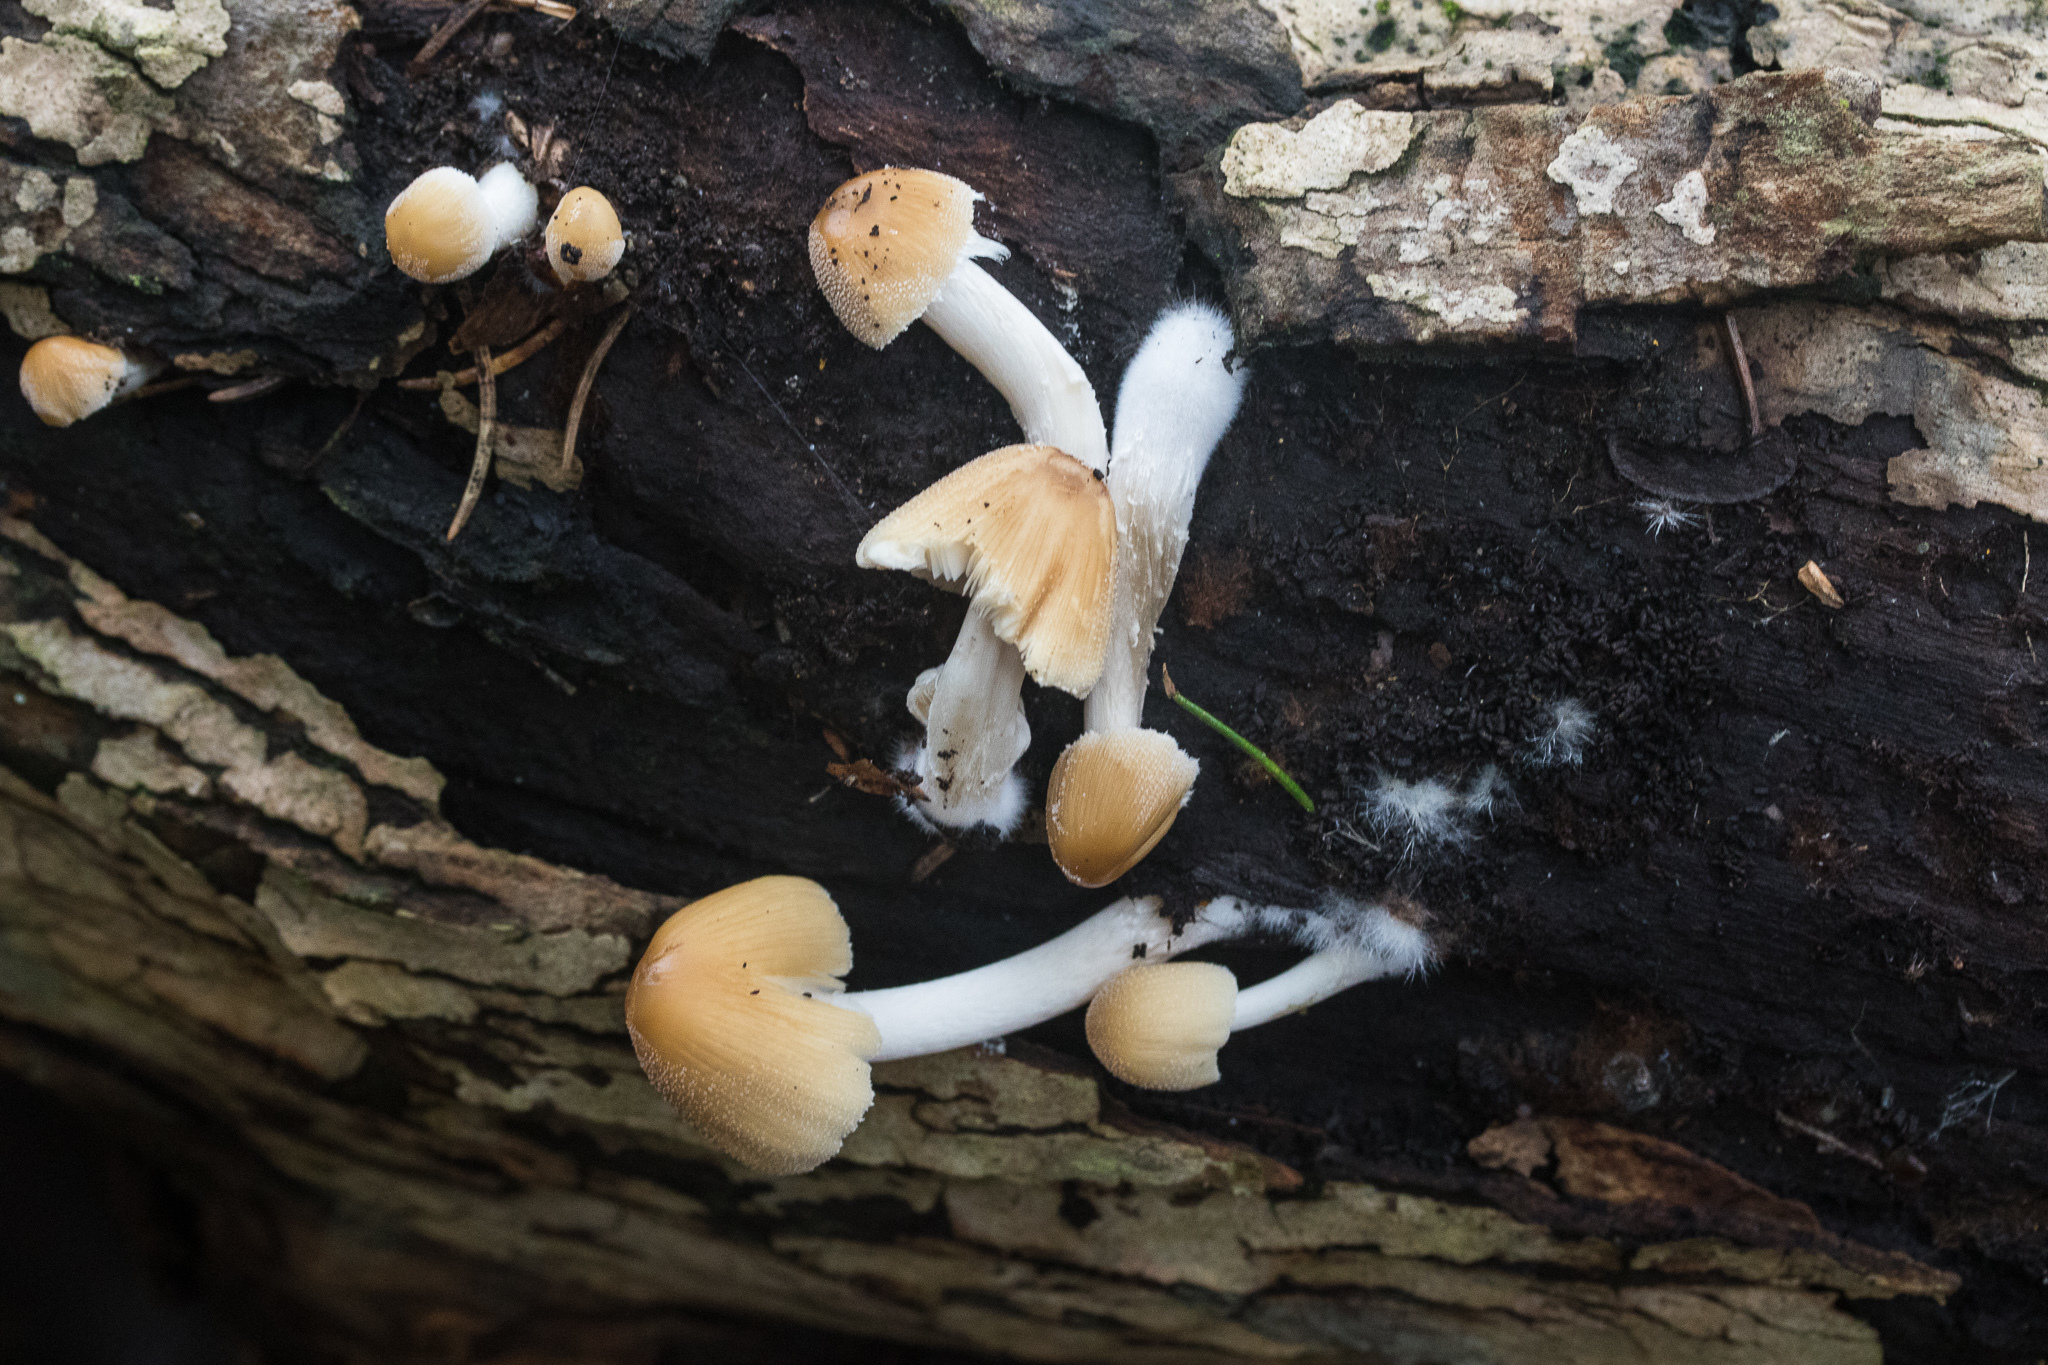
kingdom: Fungi
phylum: Basidiomycota
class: Agaricomycetes
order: Agaricales
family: Psathyrellaceae
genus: Coprinellus
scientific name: Coprinellus micaceus
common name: Glistening ink-cap
